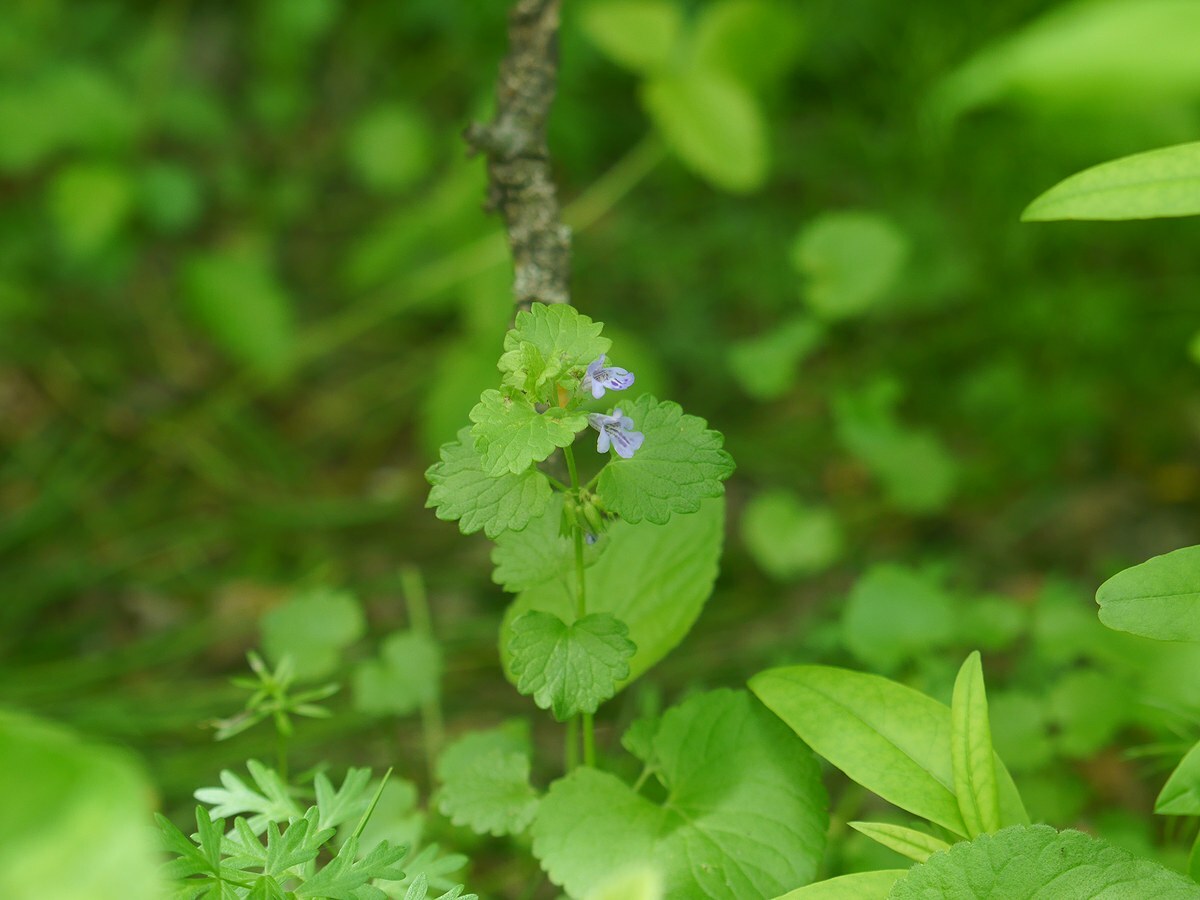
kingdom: Plantae
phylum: Tracheophyta
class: Magnoliopsida
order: Lamiales
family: Lamiaceae
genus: Glechoma
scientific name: Glechoma hederacea
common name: Ground ivy
